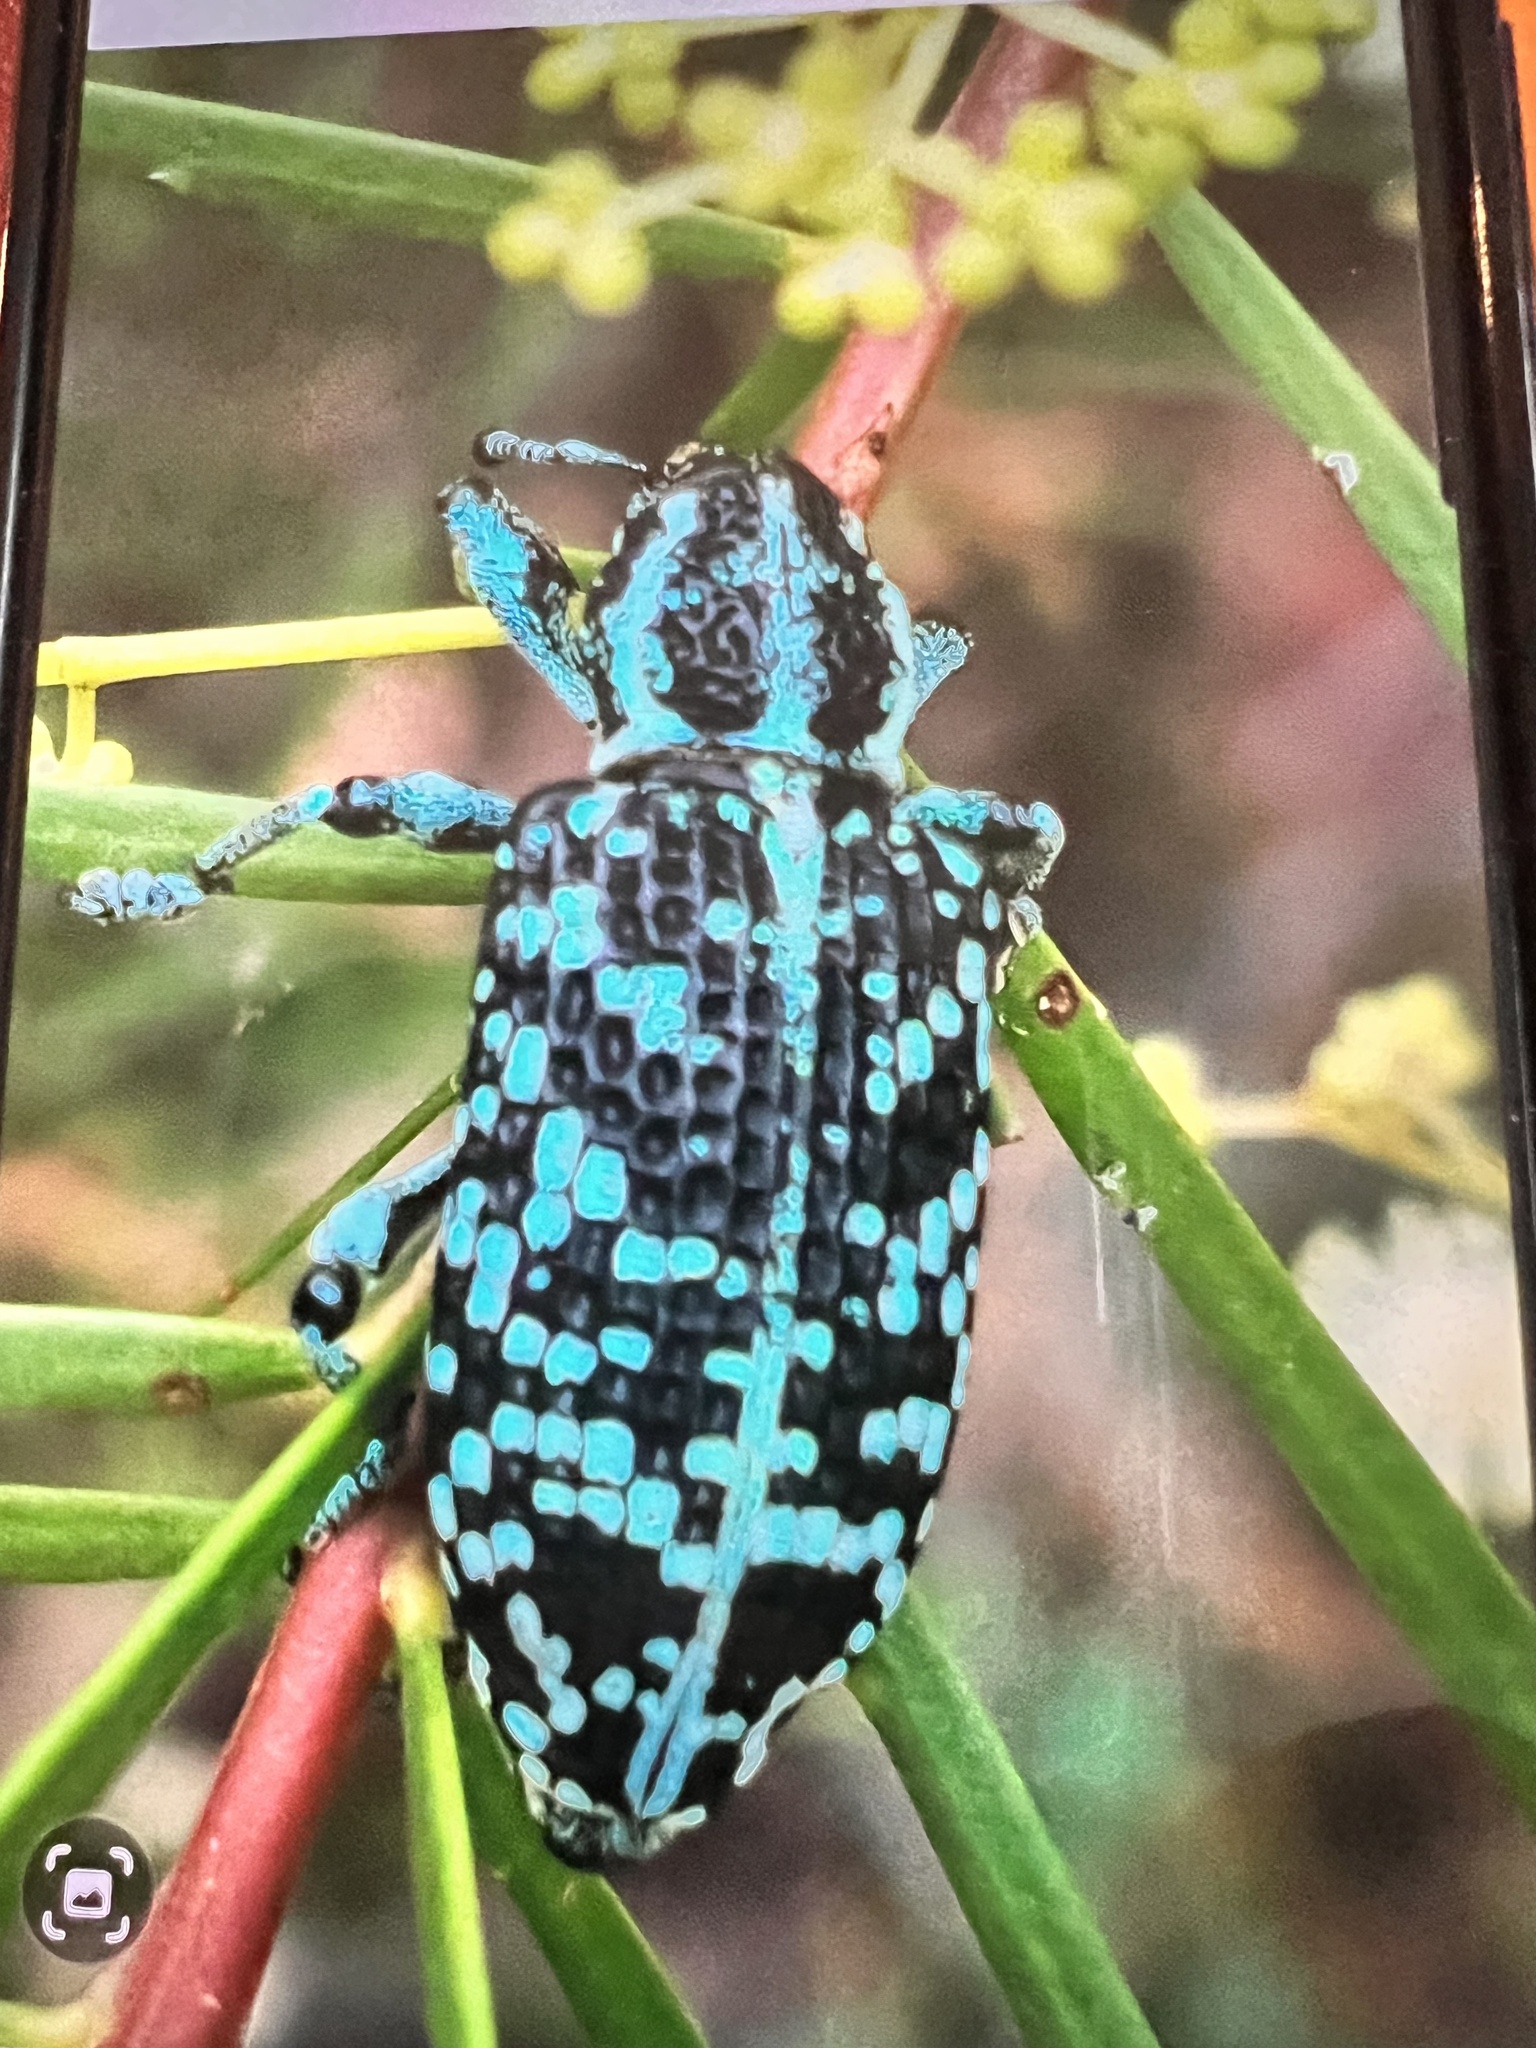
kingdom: Animalia
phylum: Arthropoda
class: Insecta
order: Coleoptera
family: Curculionidae
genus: Chrysolopus
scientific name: Chrysolopus spectabilis
